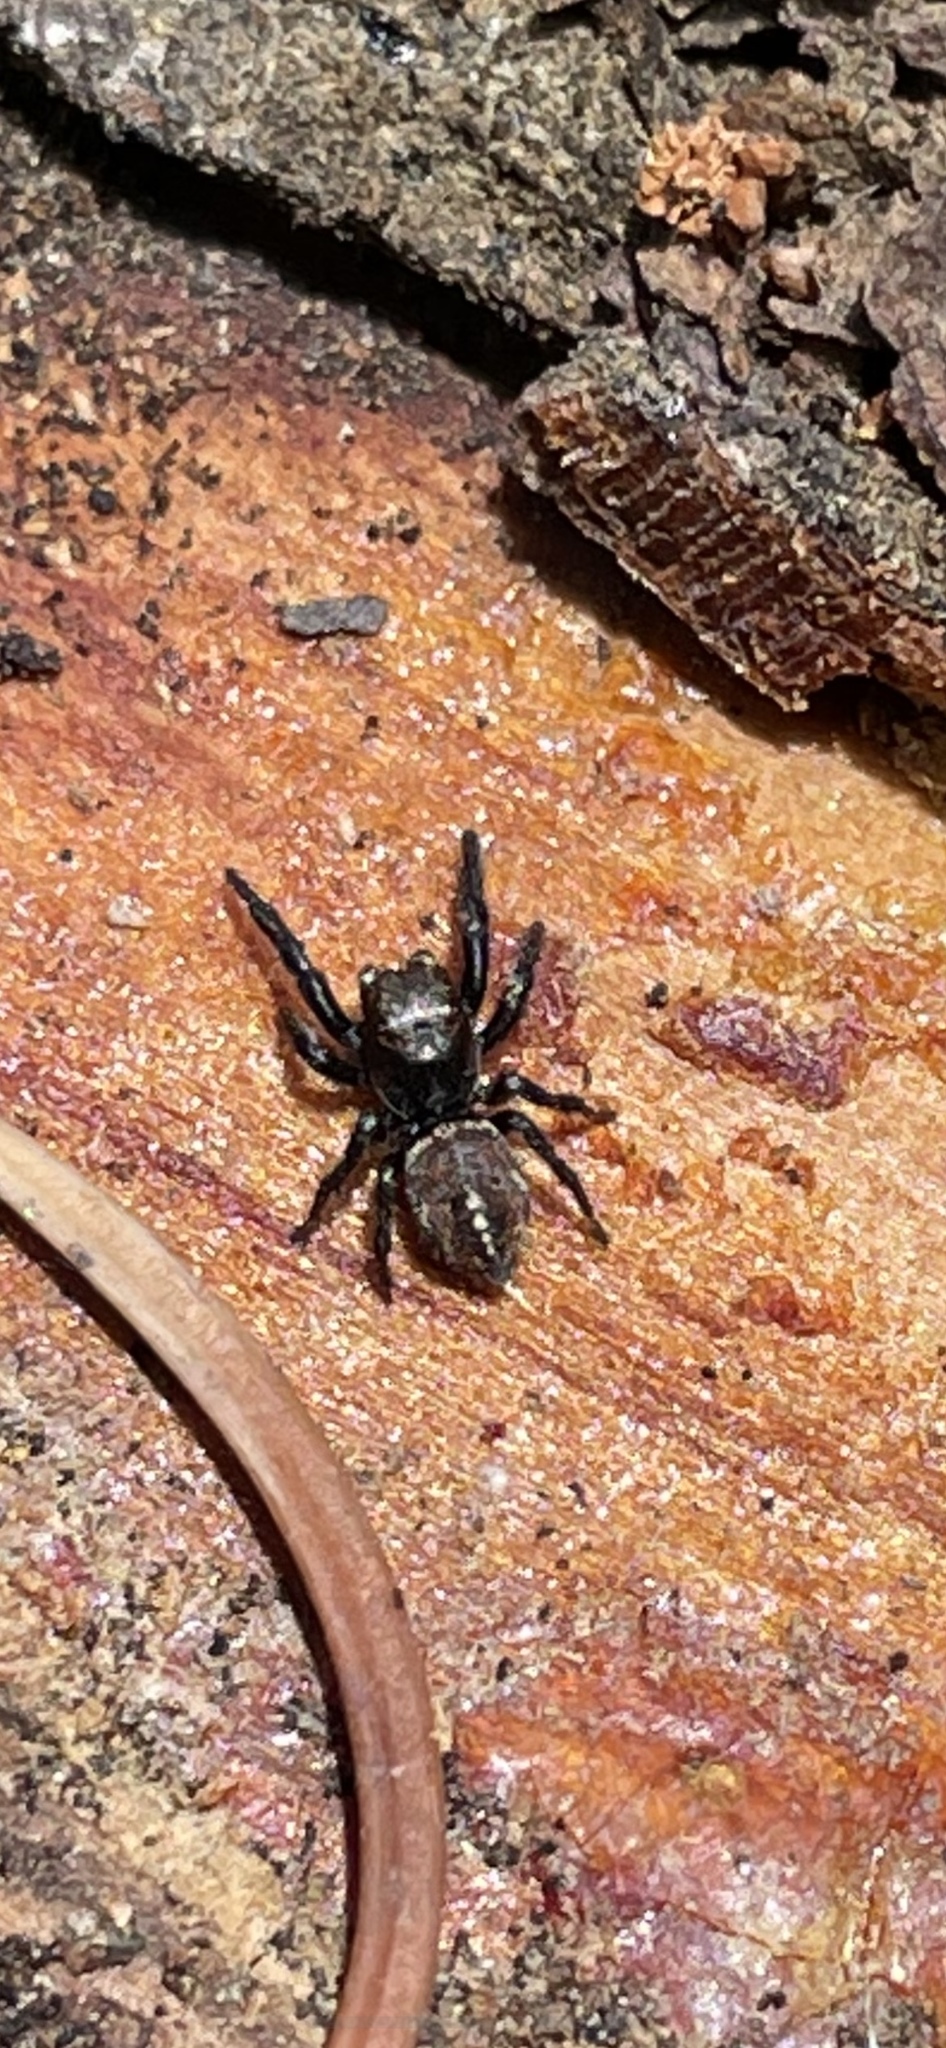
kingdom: Animalia
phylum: Arthropoda
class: Arachnida
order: Araneae
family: Salticidae
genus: Pellenes
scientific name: Pellenes ignifrons
